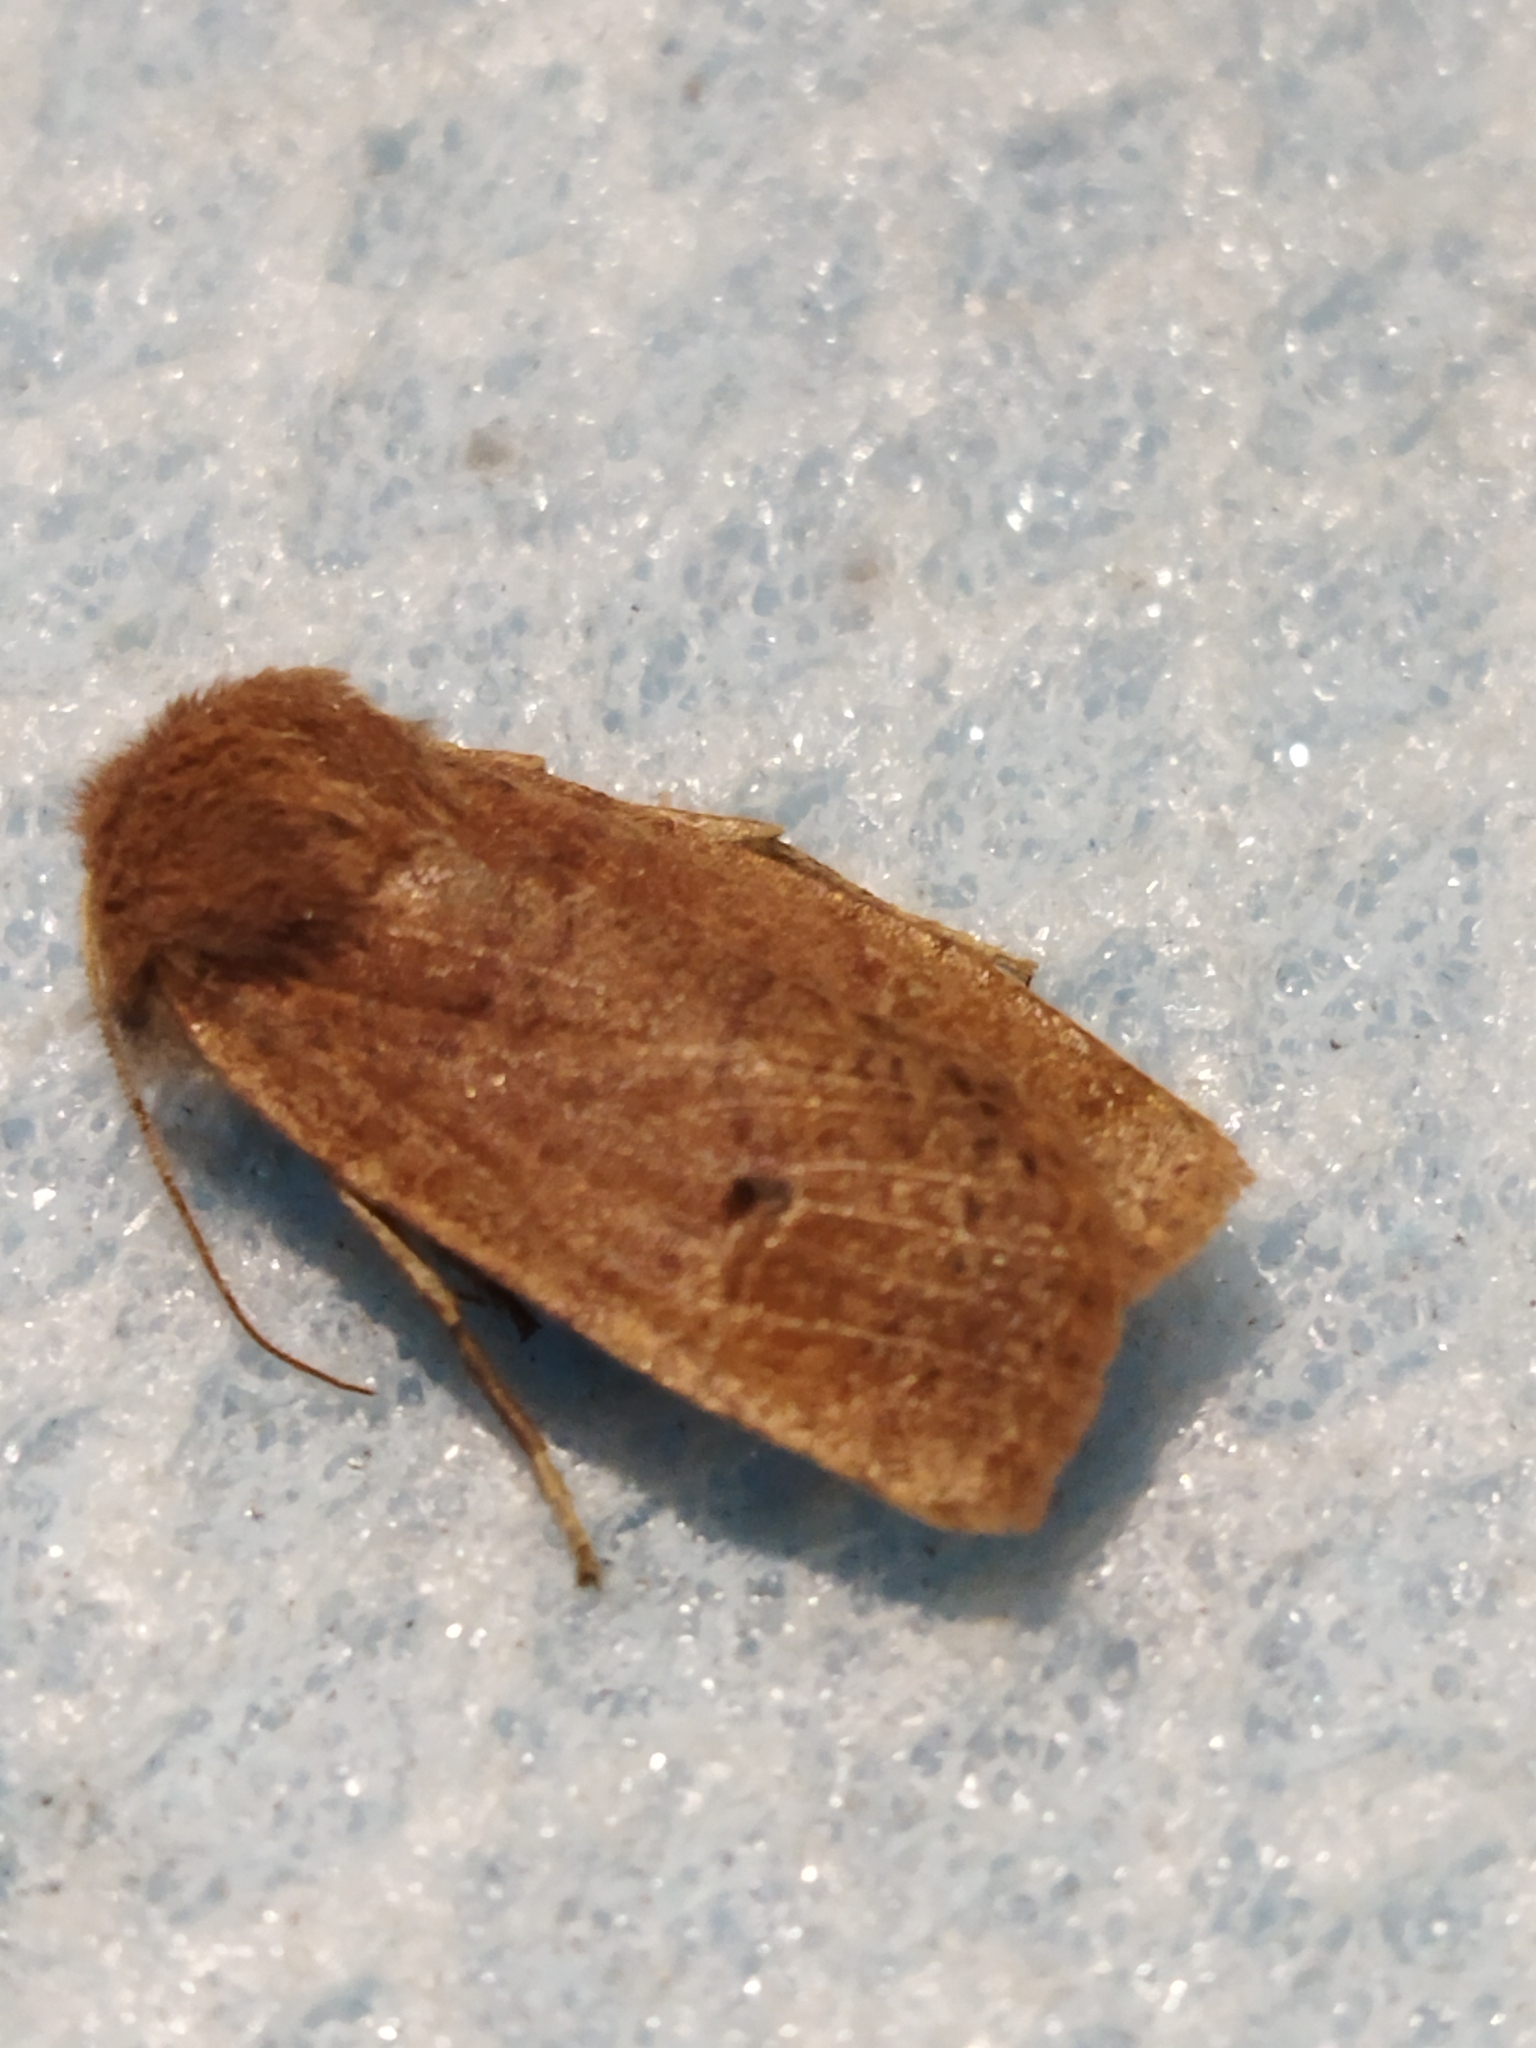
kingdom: Animalia
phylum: Arthropoda
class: Insecta
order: Lepidoptera
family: Noctuidae
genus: Conistra
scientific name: Conistra ragusae
